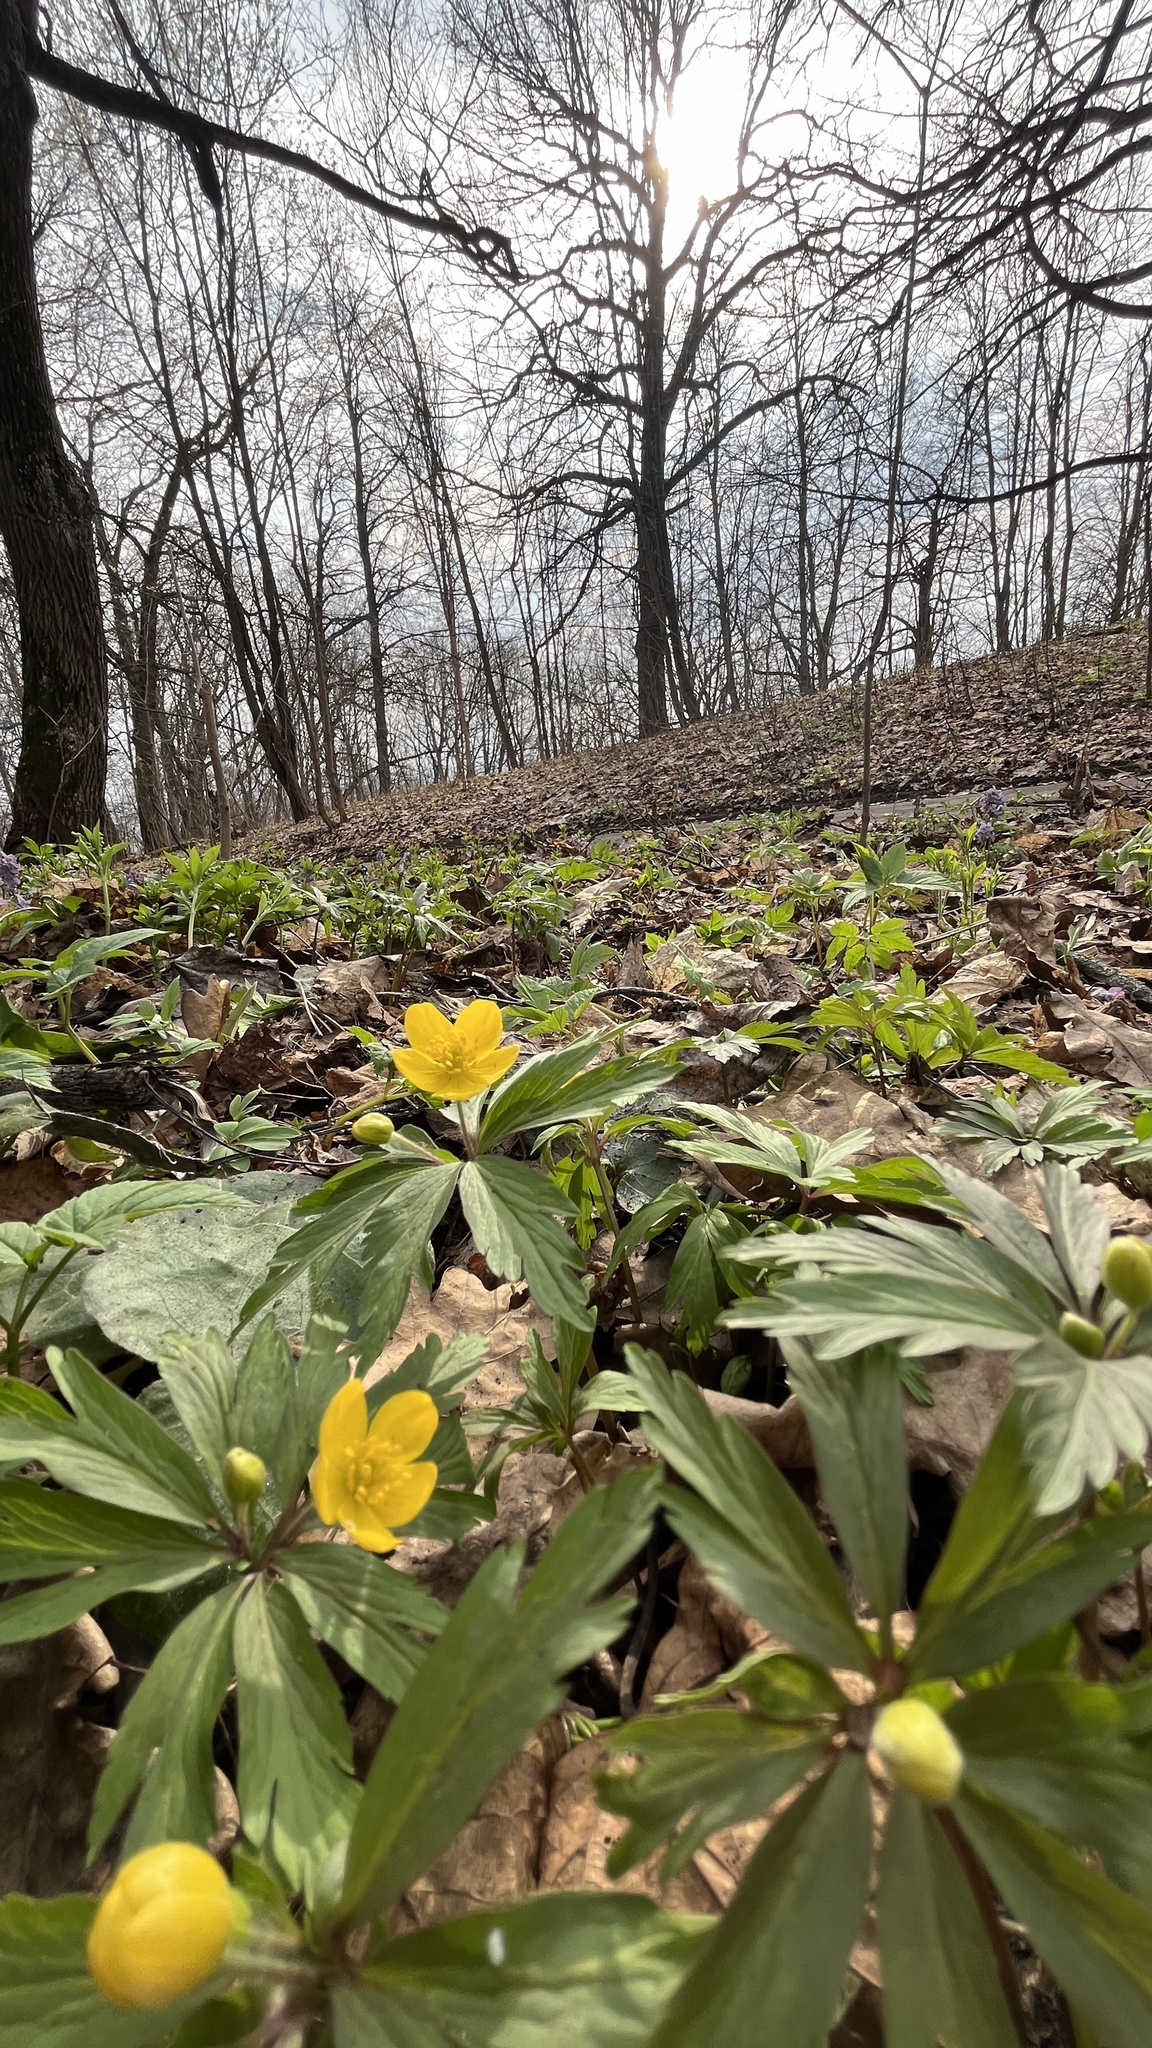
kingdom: Plantae
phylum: Tracheophyta
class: Magnoliopsida
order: Ranunculales
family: Ranunculaceae
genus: Anemone
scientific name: Anemone ranunculoides
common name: Yellow anemone
